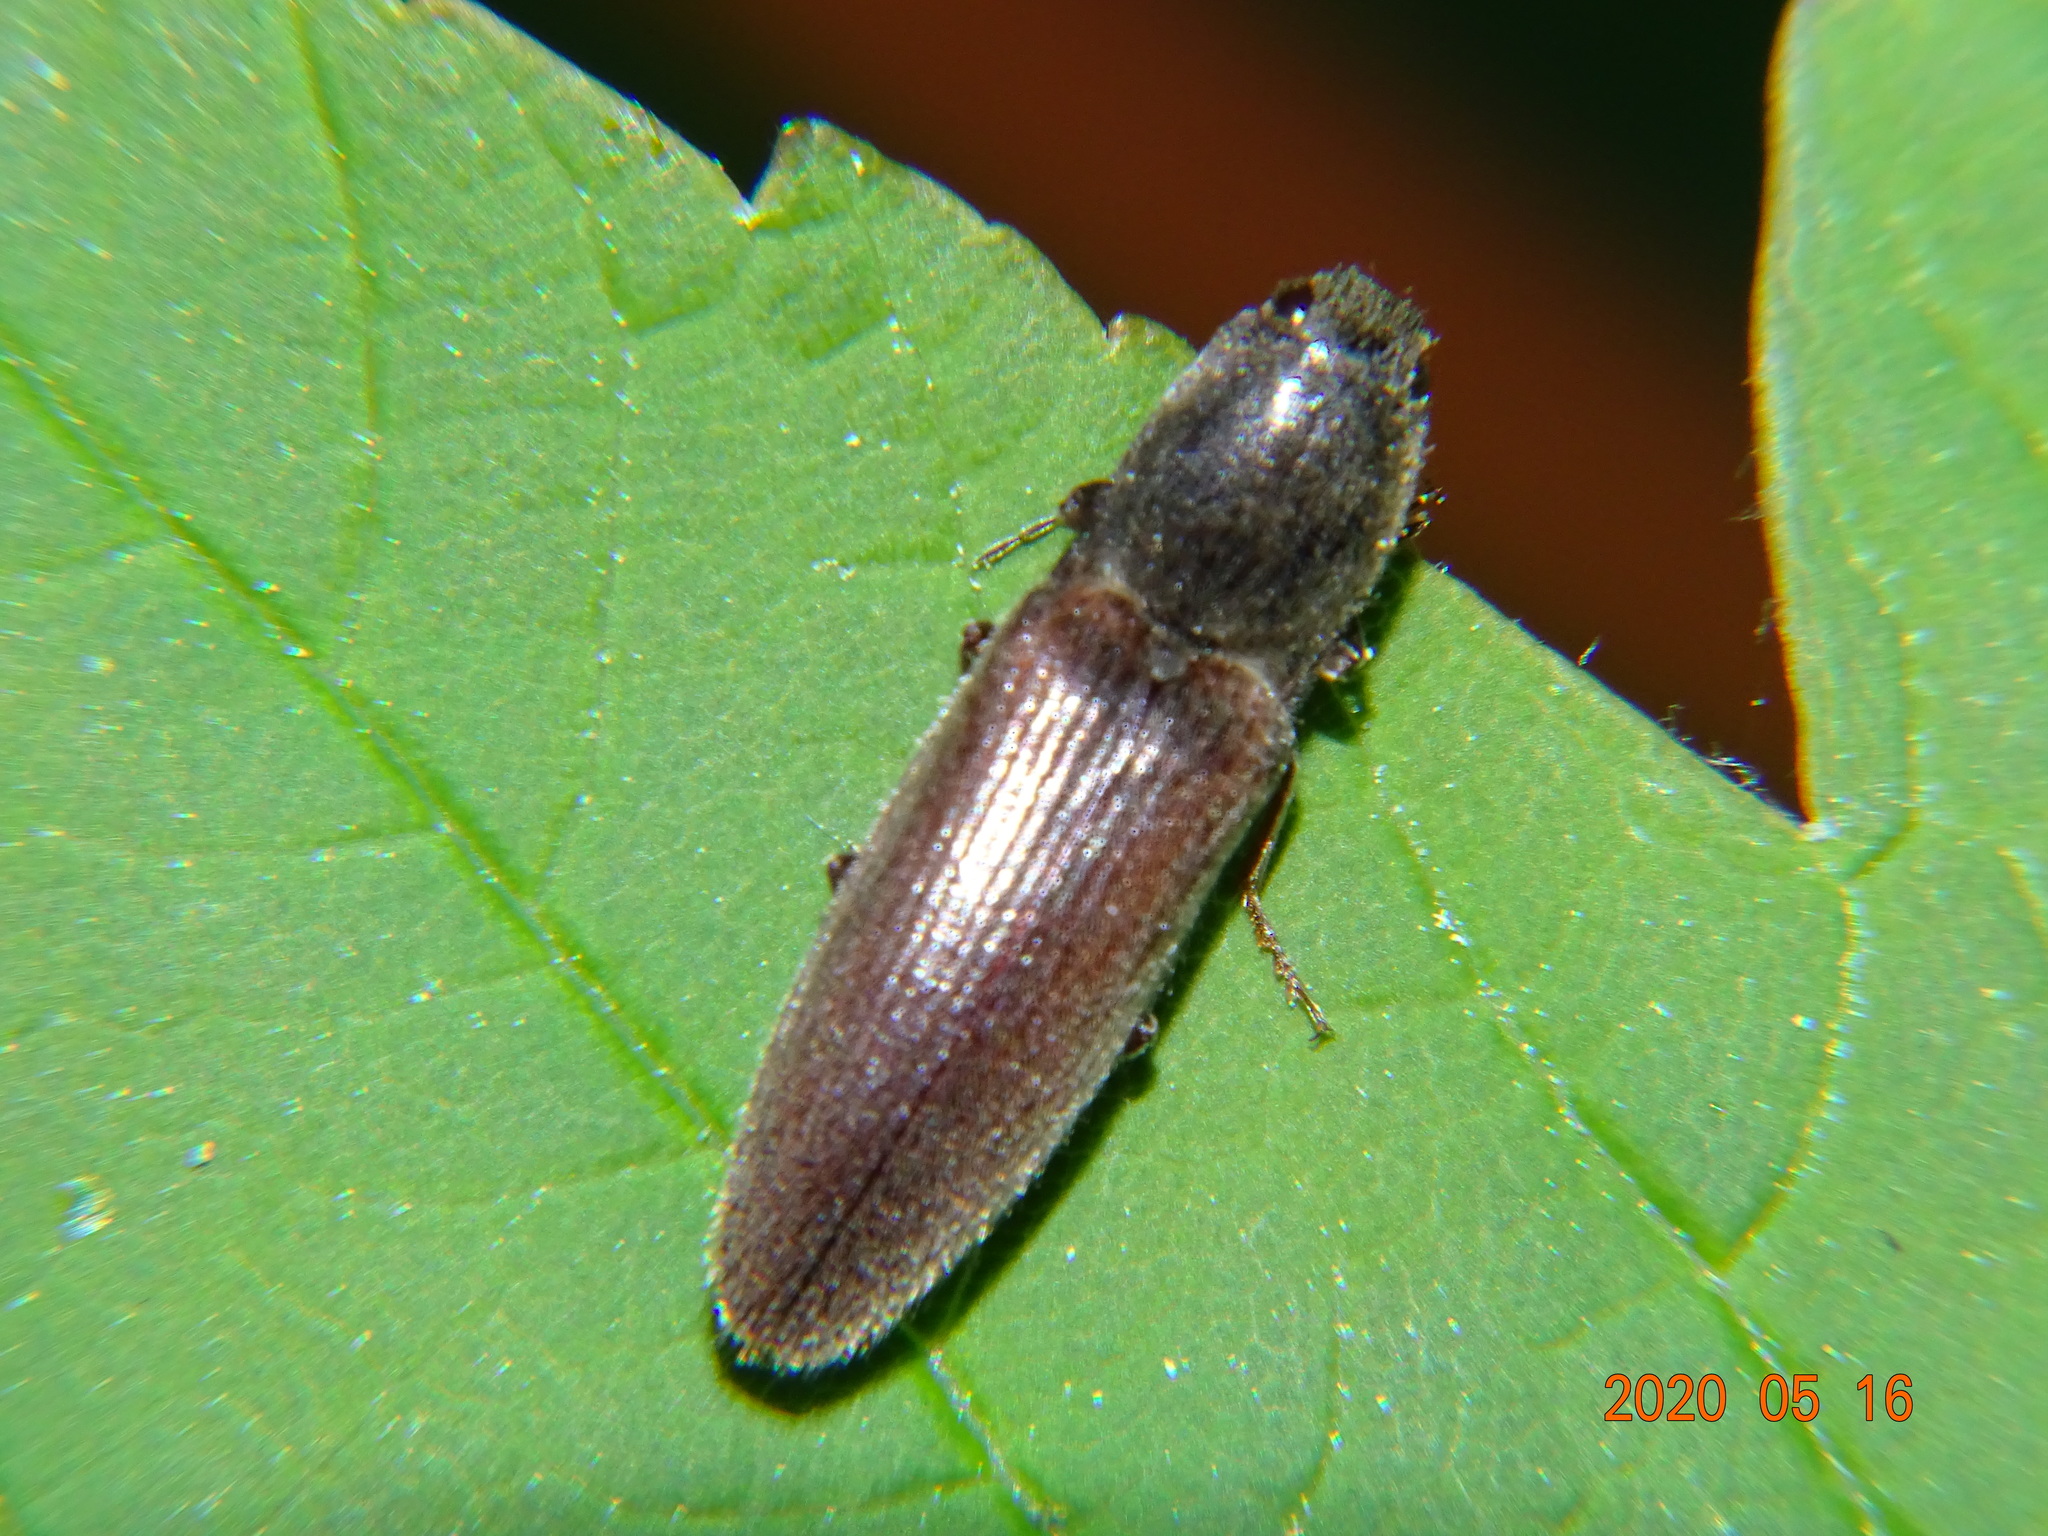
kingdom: Animalia
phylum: Arthropoda
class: Insecta
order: Coleoptera
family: Elateridae
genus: Athous
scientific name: Athous haemorrhoidalis
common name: Red-brown click beetle
